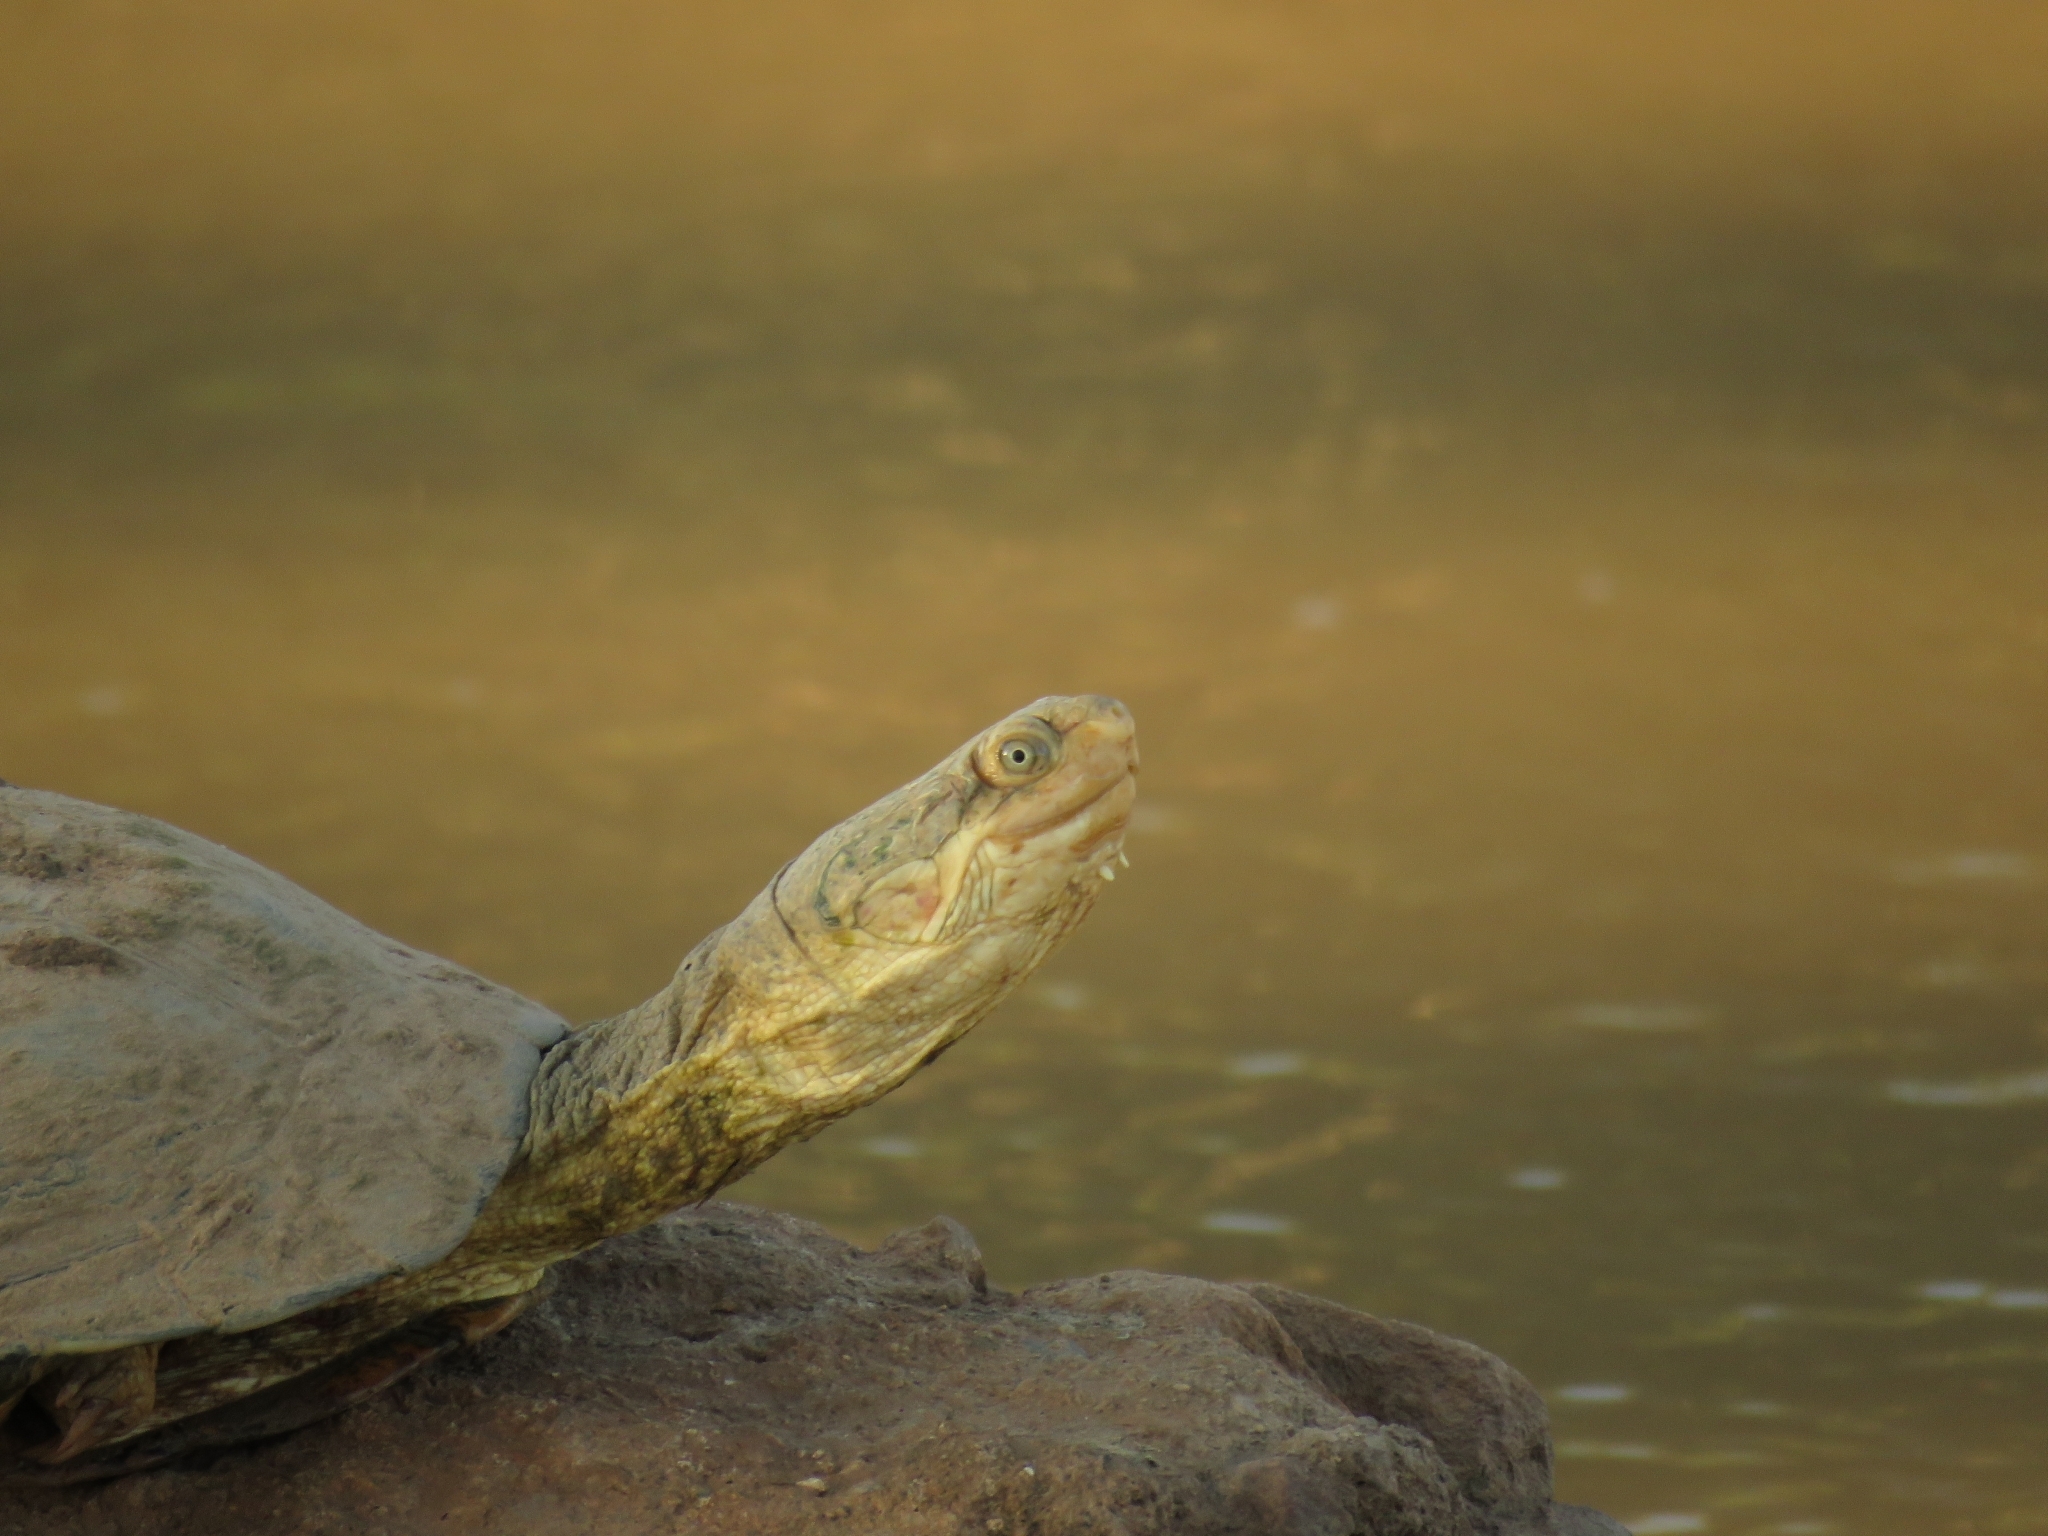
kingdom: Animalia
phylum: Chordata
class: Testudines
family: Pelomedusidae
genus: Pelomedusa
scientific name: Pelomedusa galeata
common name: South african helmeted terrapin
